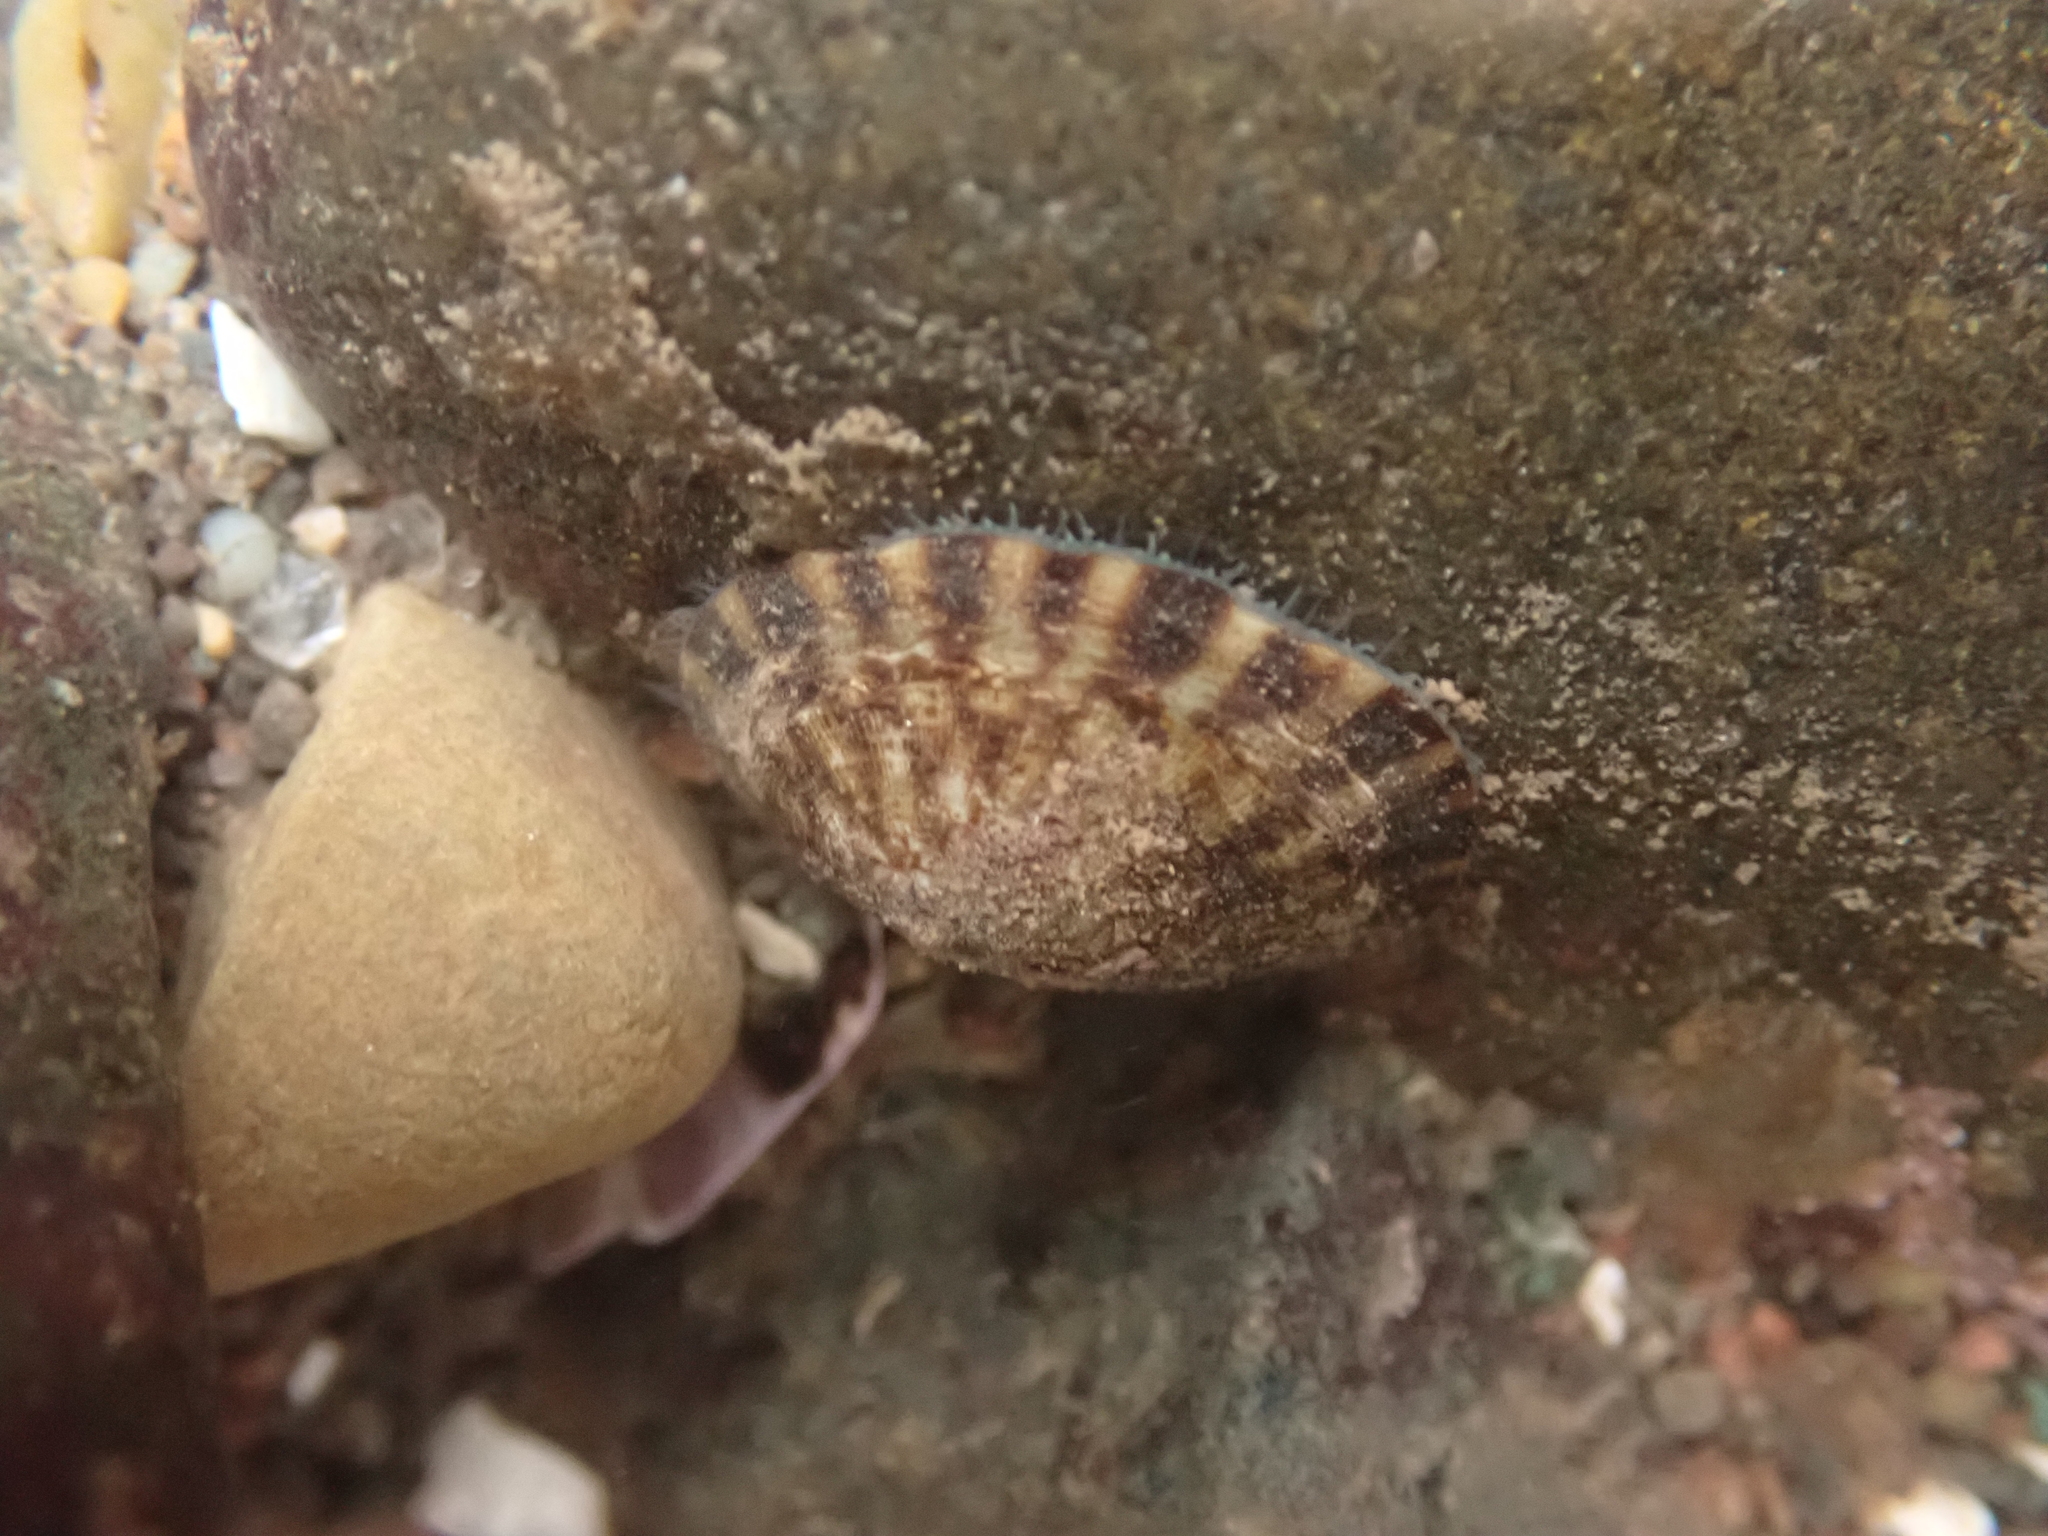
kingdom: Animalia
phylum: Mollusca
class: Gastropoda
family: Lottiidae
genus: Testudinalia
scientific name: Testudinalia testudinalis
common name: Common tortoiseshell limpet
